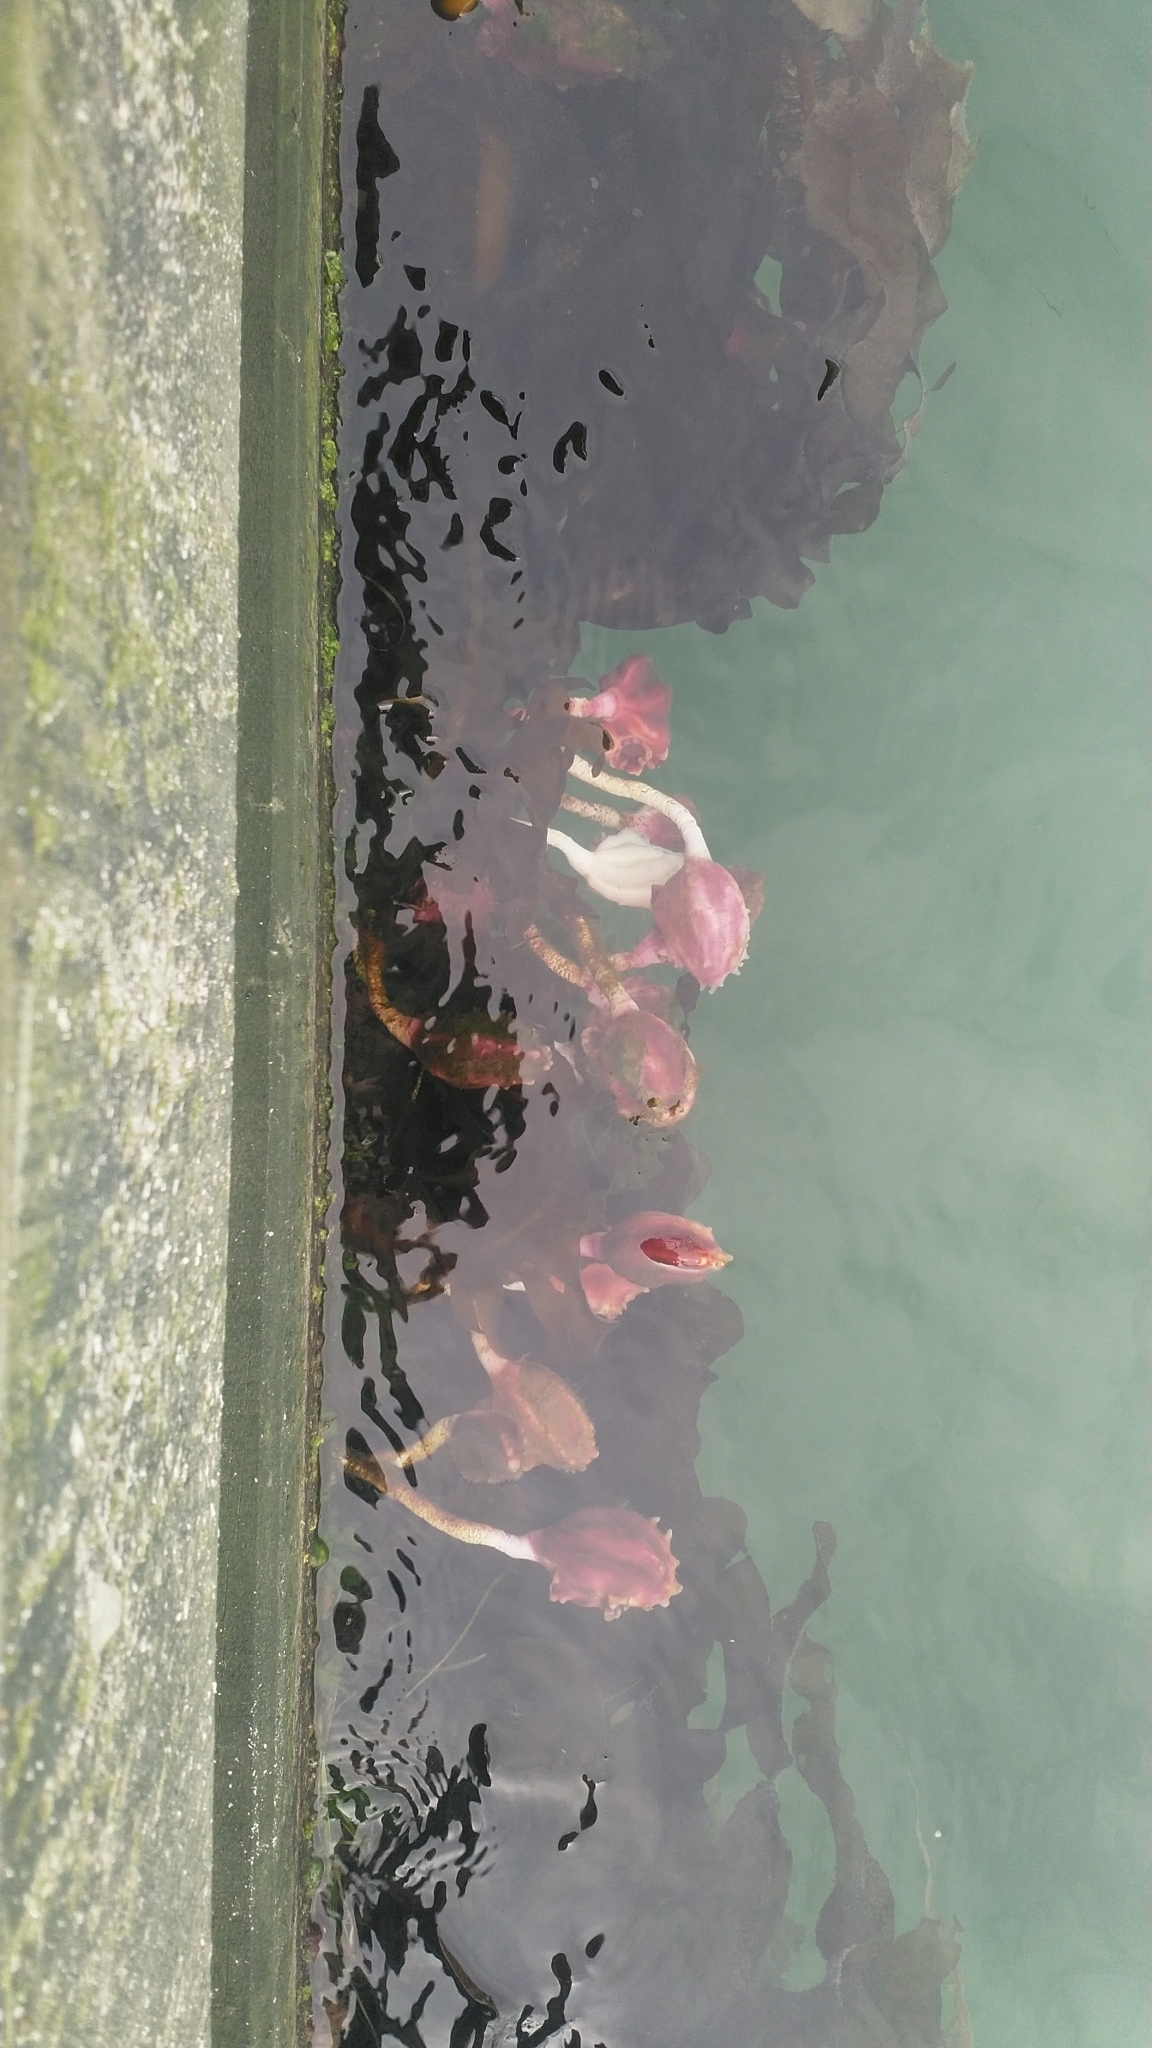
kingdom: Animalia
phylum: Chordata
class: Ascidiacea
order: Stolidobranchia
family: Pyuridae
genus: Pyura
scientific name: Pyura pachydermatina
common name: Sea tulip
